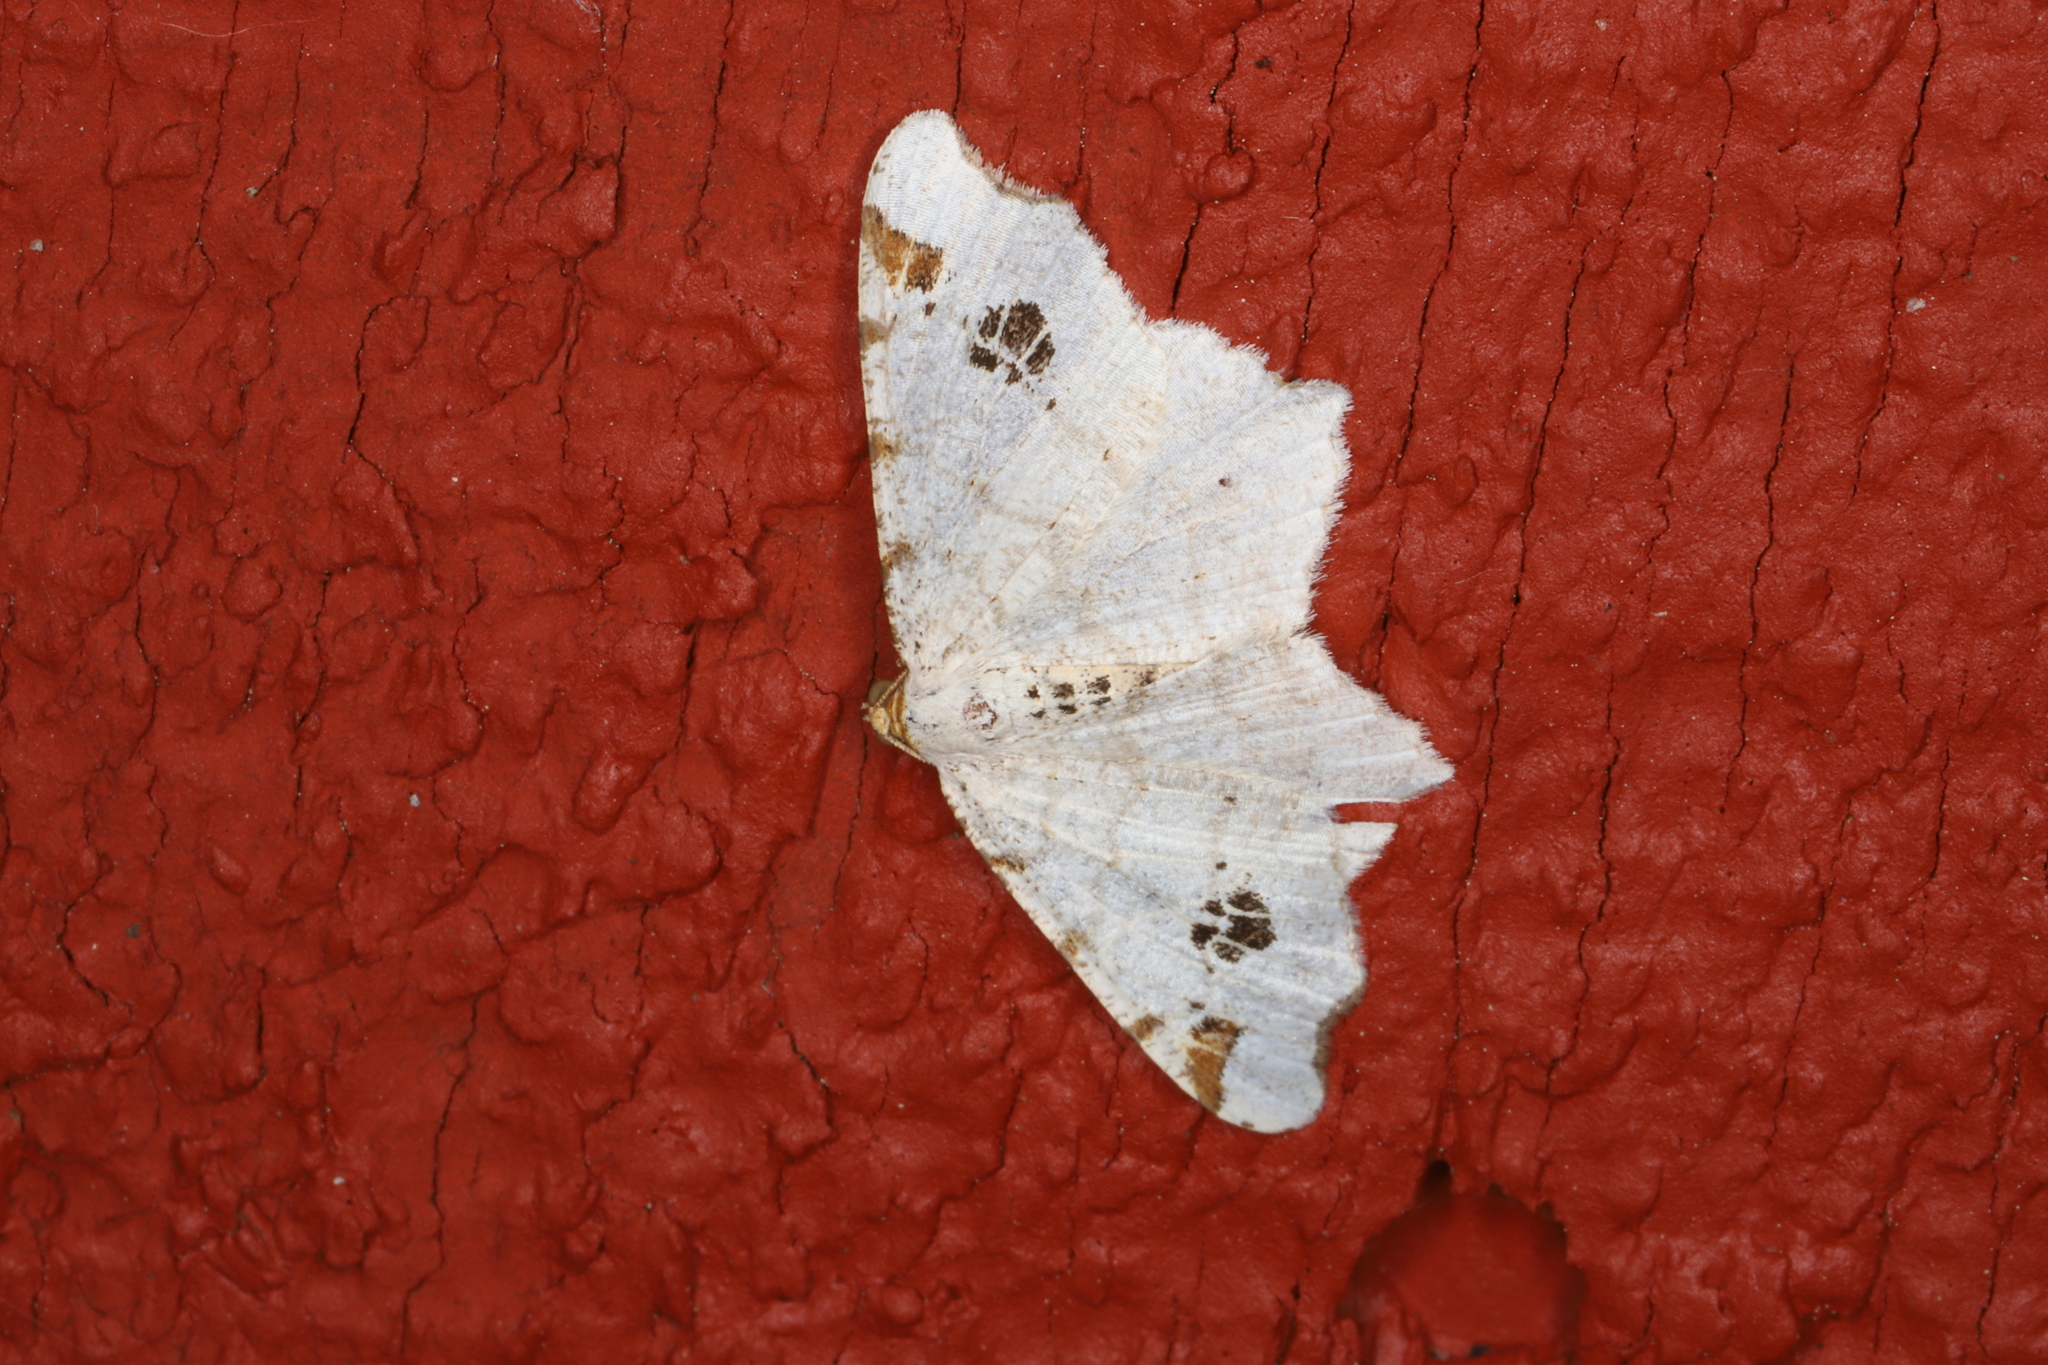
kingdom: Animalia
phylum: Arthropoda
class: Insecta
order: Lepidoptera
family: Geometridae
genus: Macaria
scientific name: Macaria ulsterata
